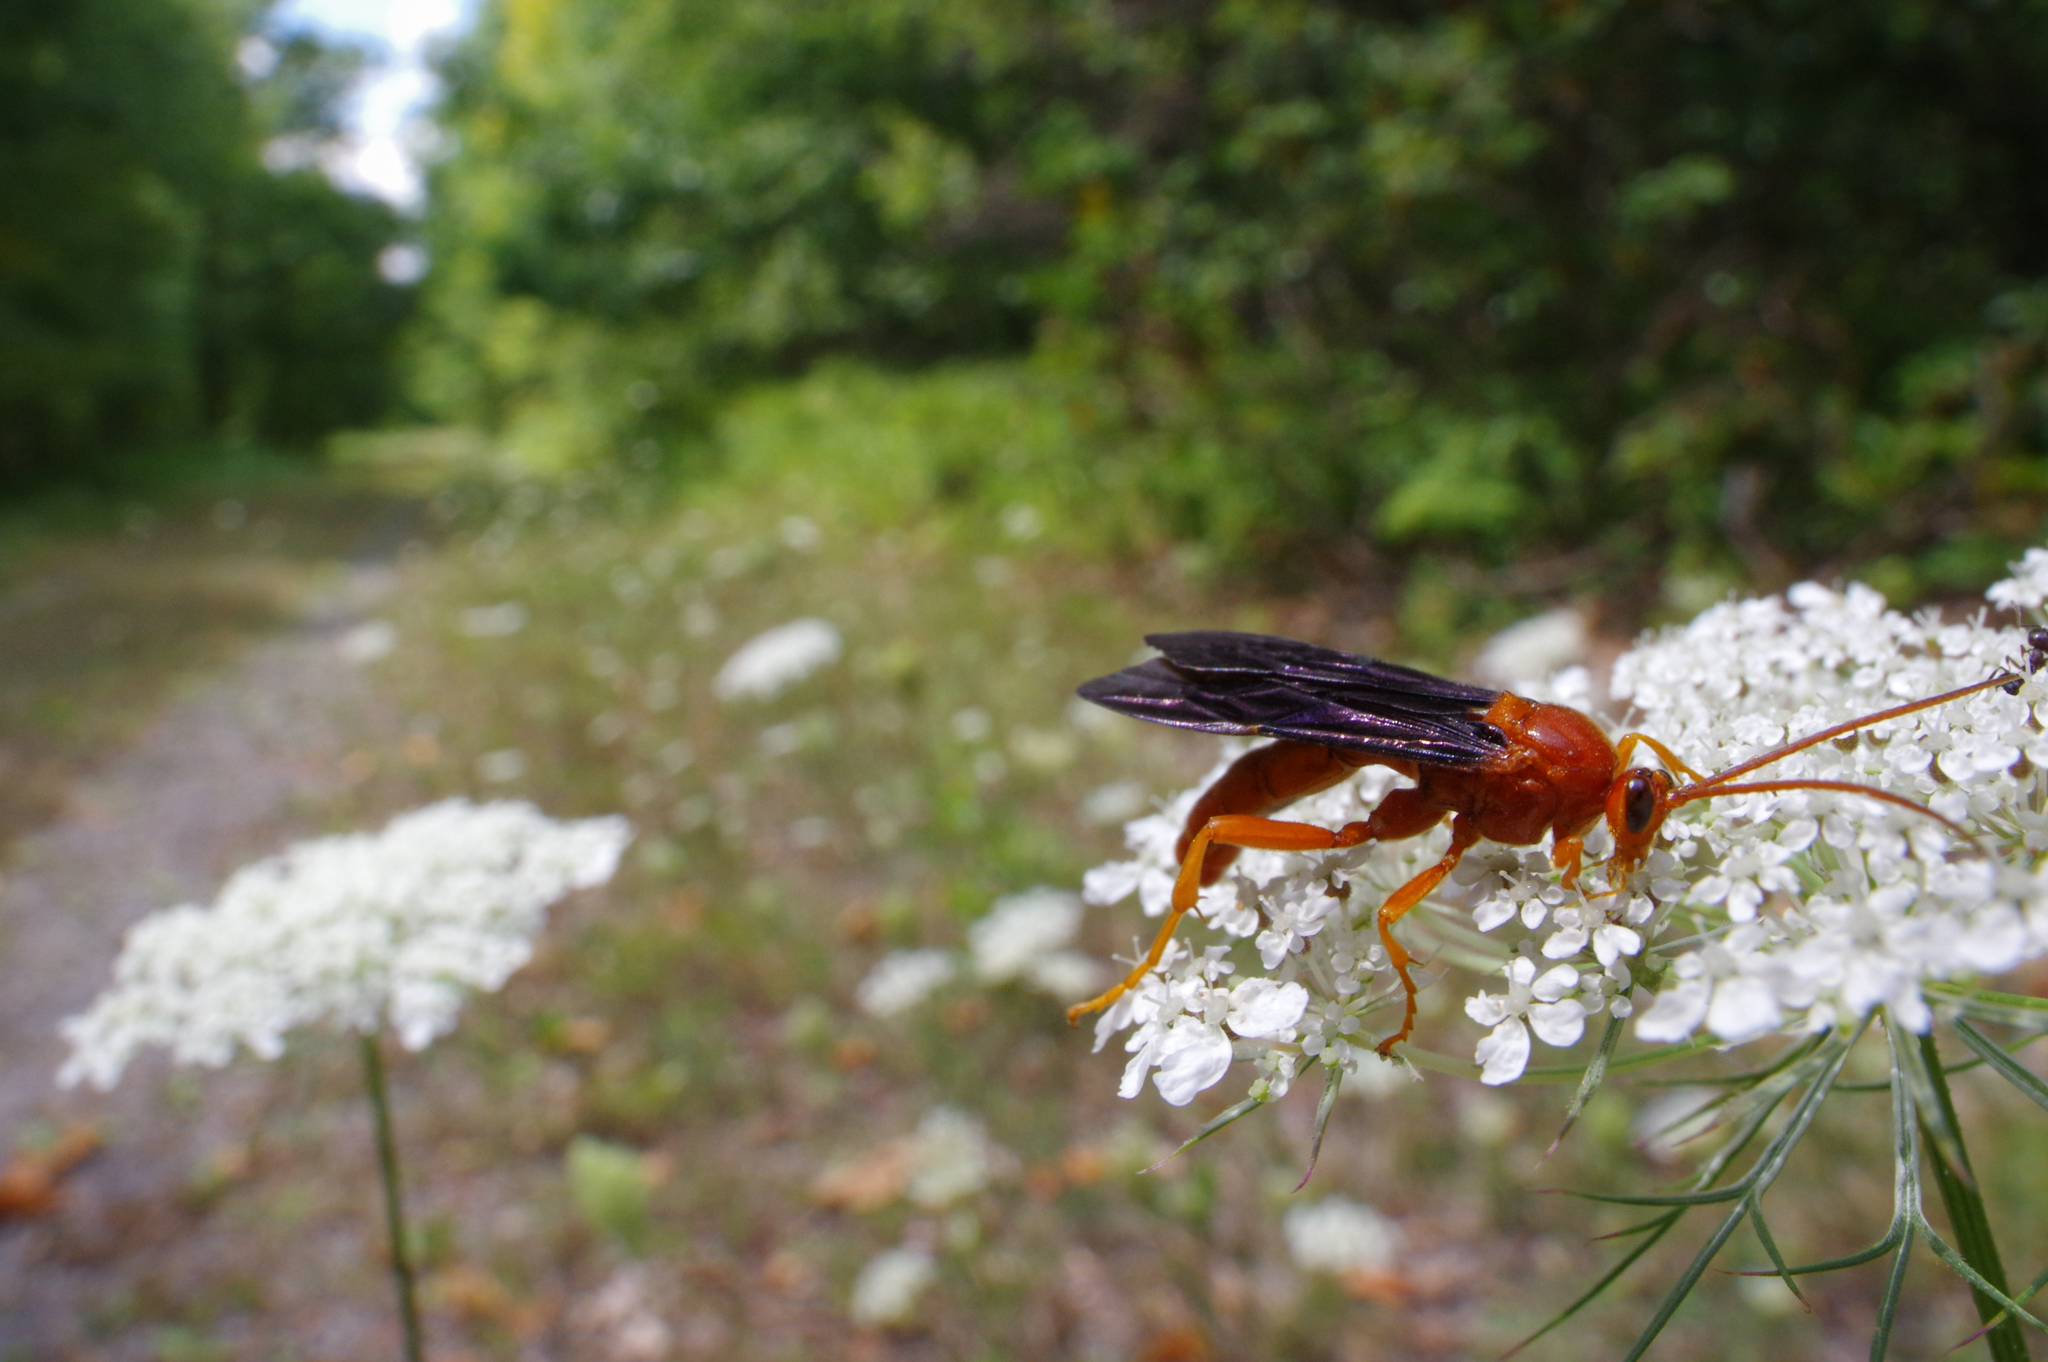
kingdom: Animalia
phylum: Arthropoda
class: Insecta
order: Hymenoptera
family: Ichneumonidae
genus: Trogus
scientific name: Trogus vulpinus
